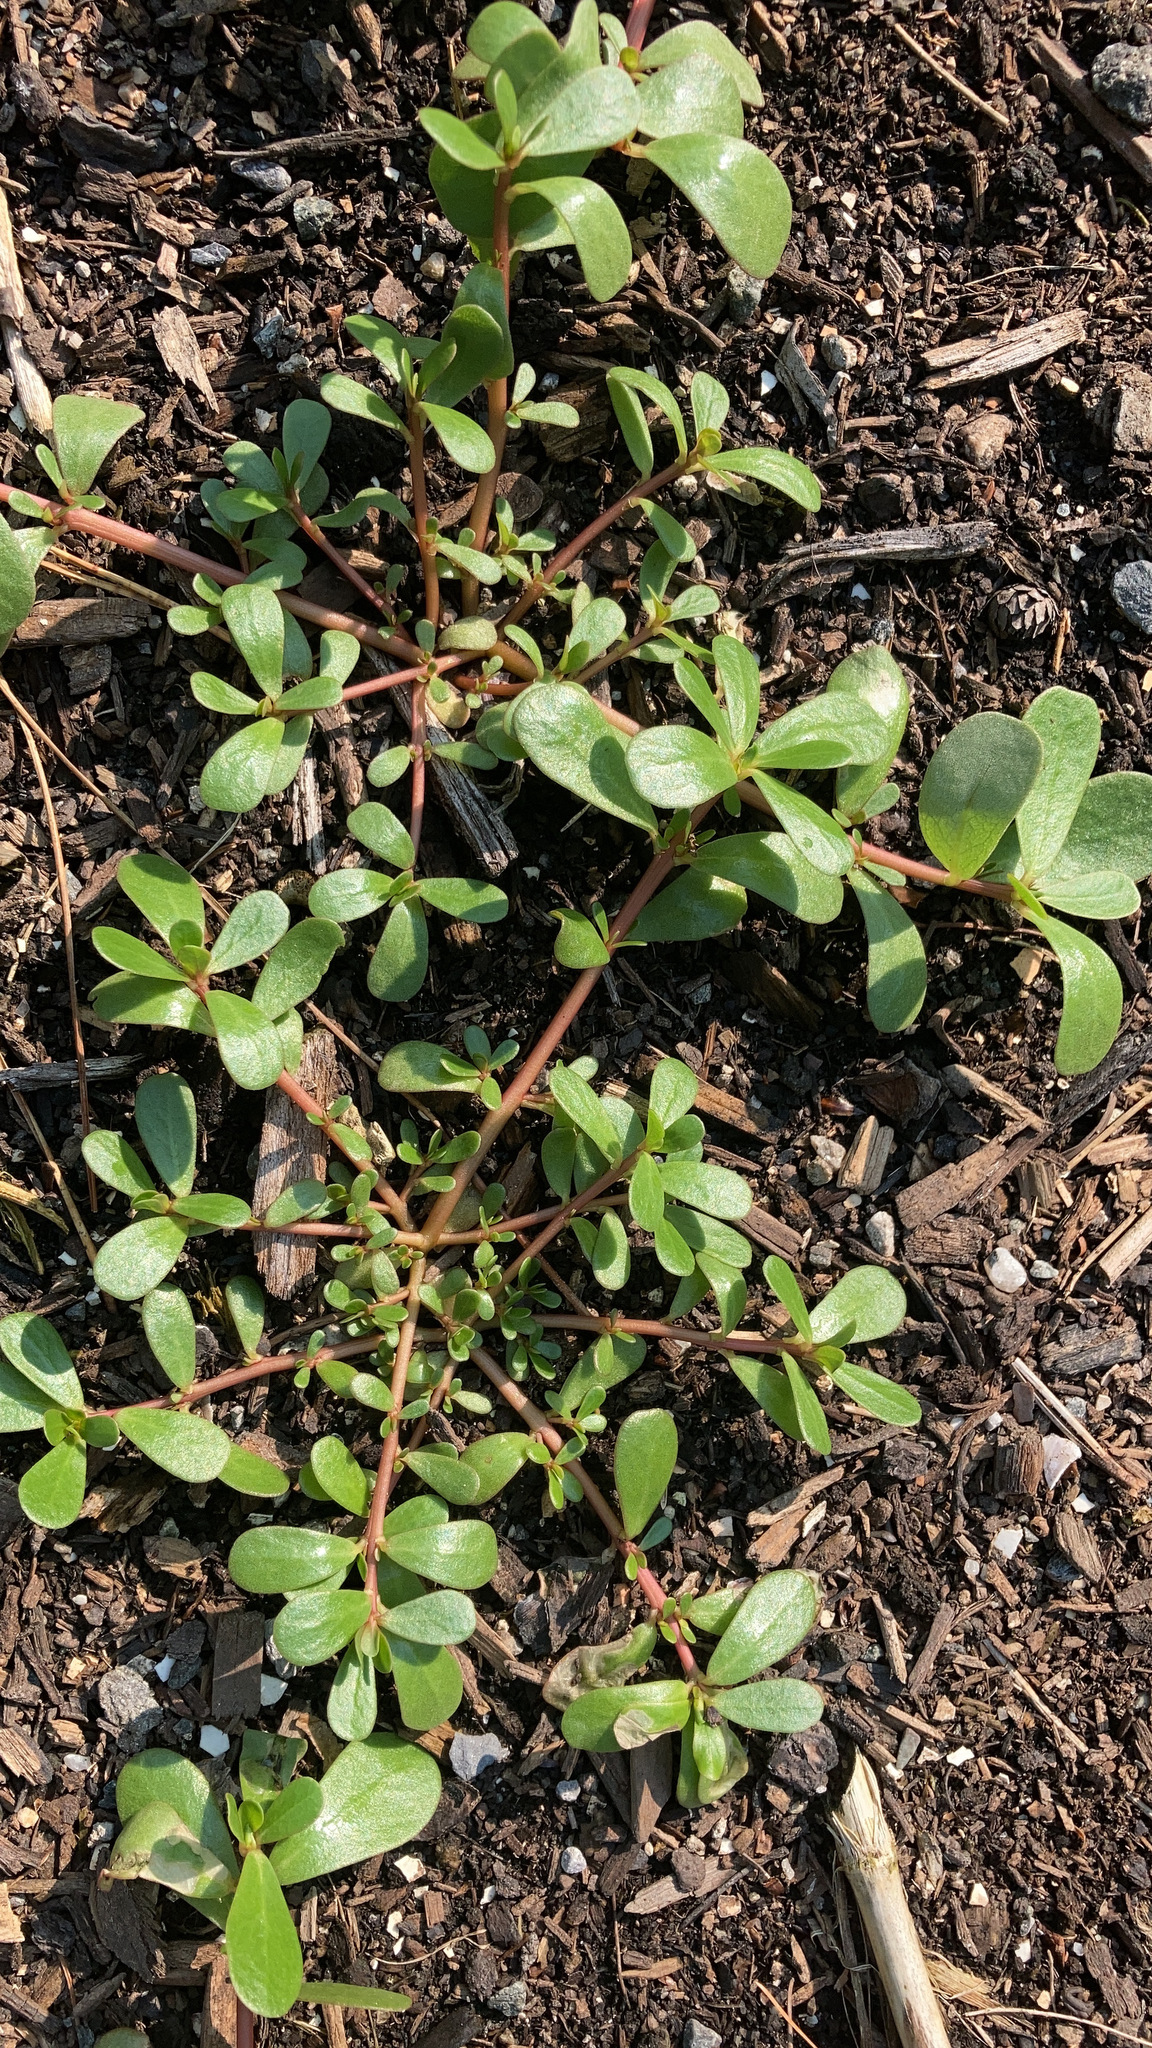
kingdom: Plantae
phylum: Tracheophyta
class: Magnoliopsida
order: Caryophyllales
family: Portulacaceae
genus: Portulaca
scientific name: Portulaca oleracea
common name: Common purslane
